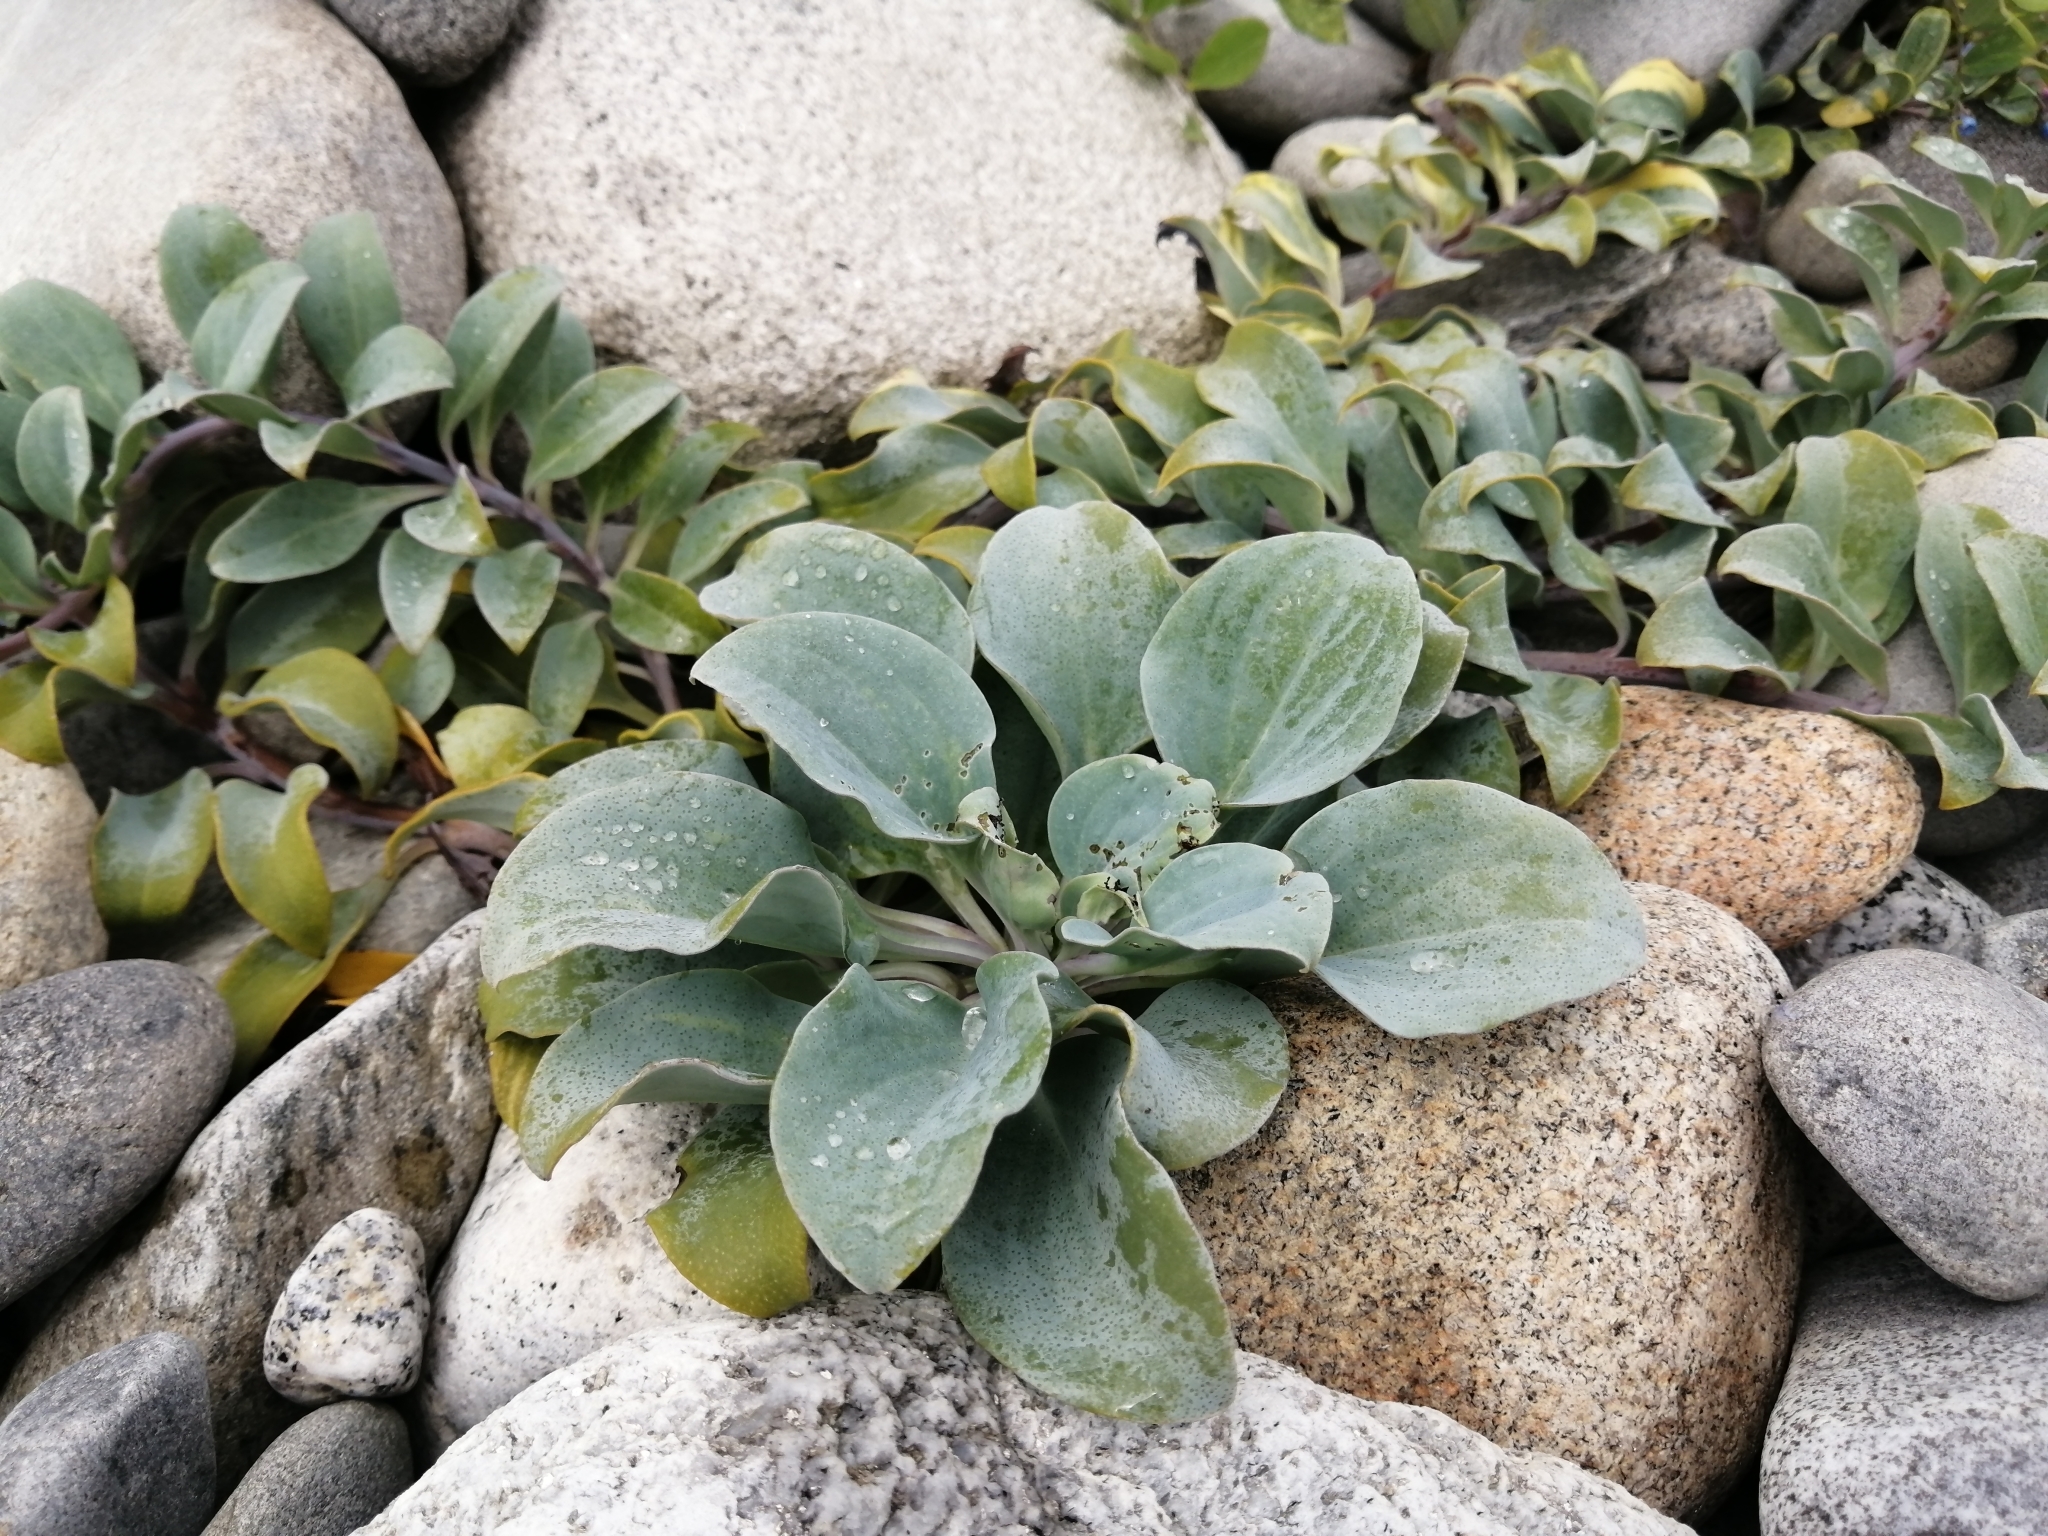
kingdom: Plantae
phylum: Tracheophyta
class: Magnoliopsida
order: Boraginales
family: Boraginaceae
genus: Mertensia
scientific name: Mertensia maritima
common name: Oysterplant
